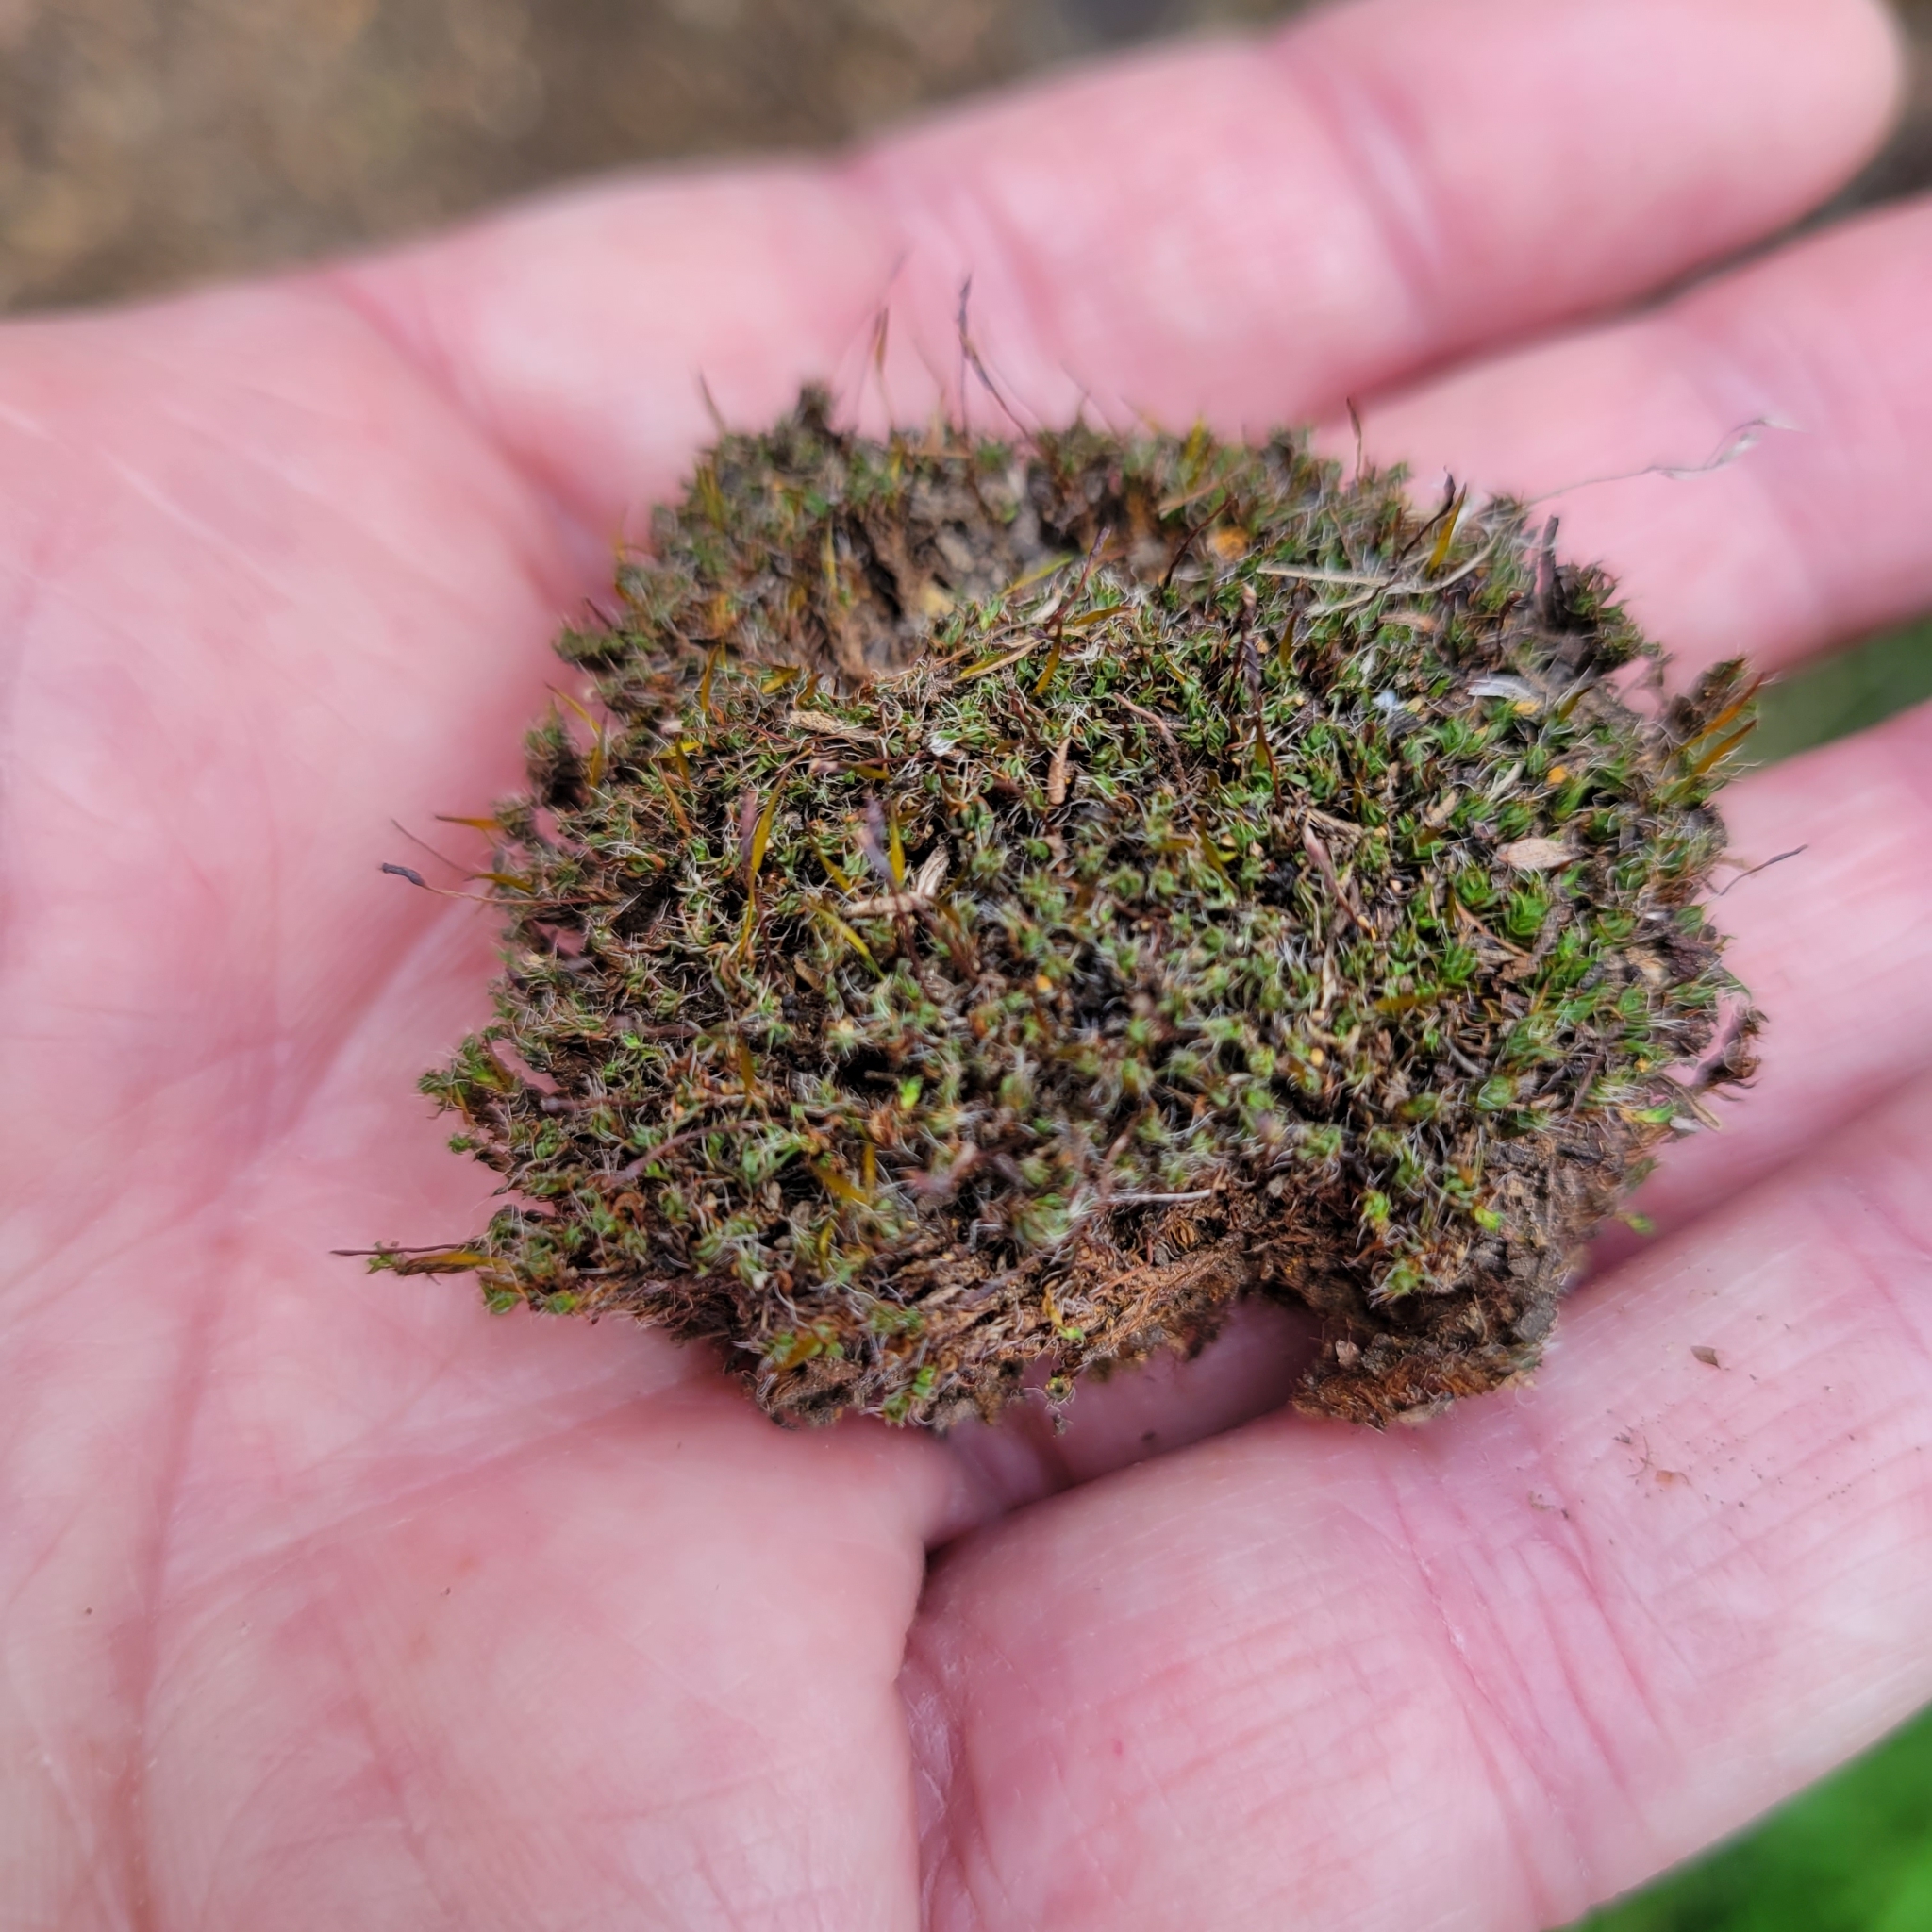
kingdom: Plantae
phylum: Bryophyta
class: Bryopsida
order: Pottiales
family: Pottiaceae
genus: Tortula
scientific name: Tortula muralis
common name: Wall screw-moss
